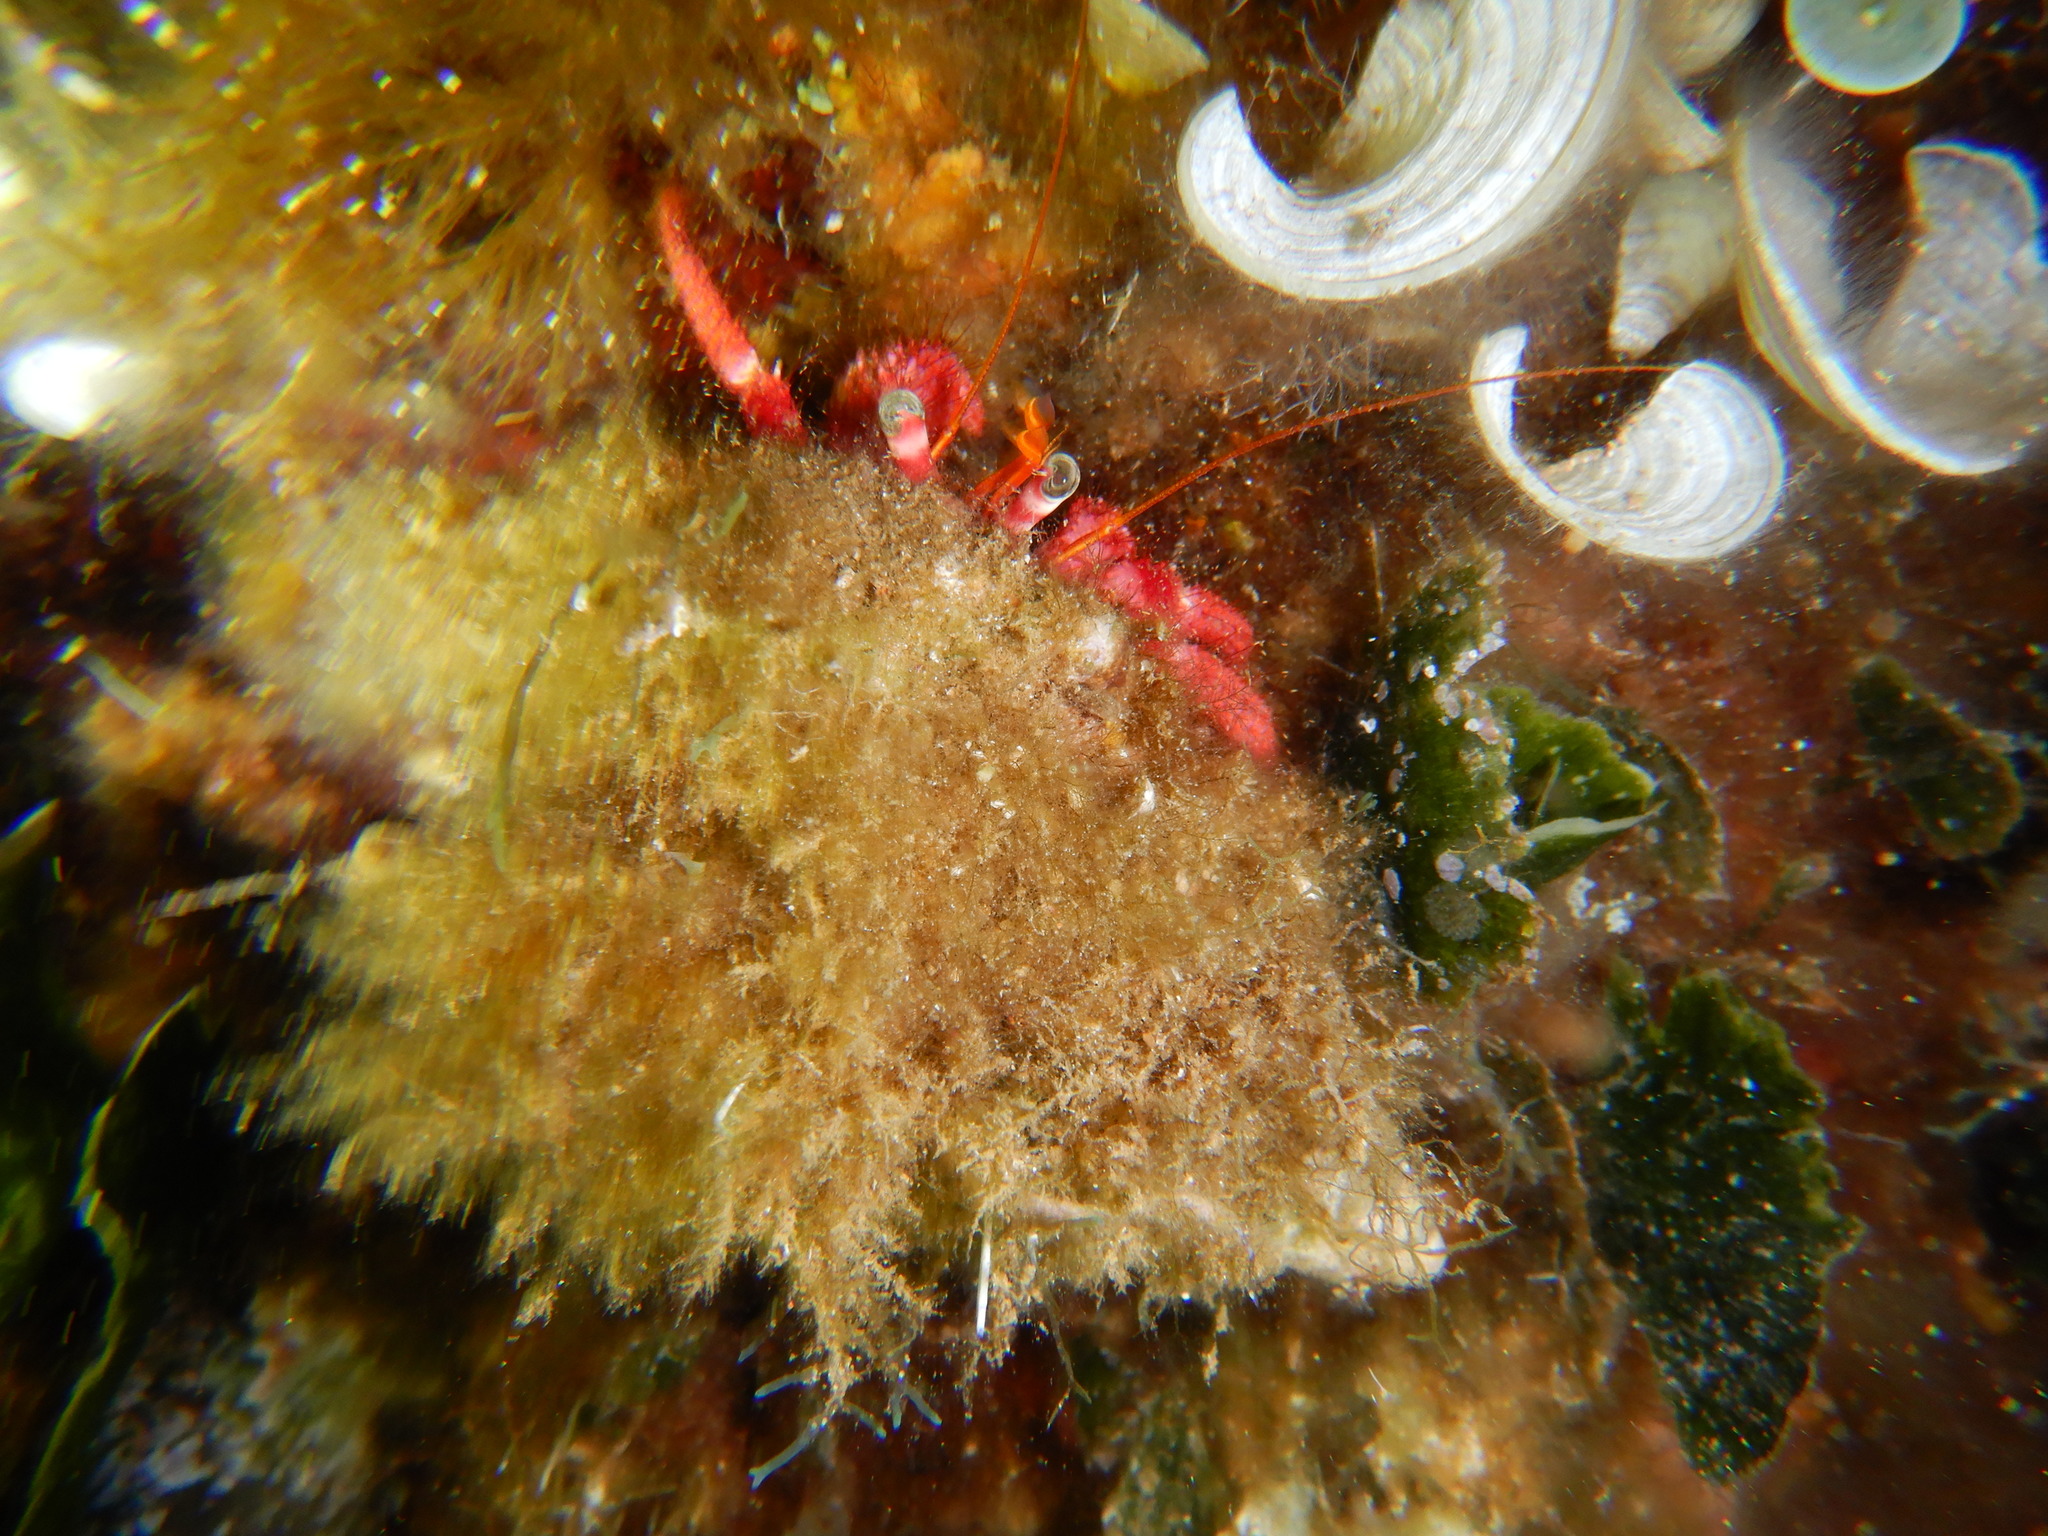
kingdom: Animalia
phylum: Arthropoda
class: Malacostraca
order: Decapoda
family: Diogenidae
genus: Dardanus
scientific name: Dardanus calidus
